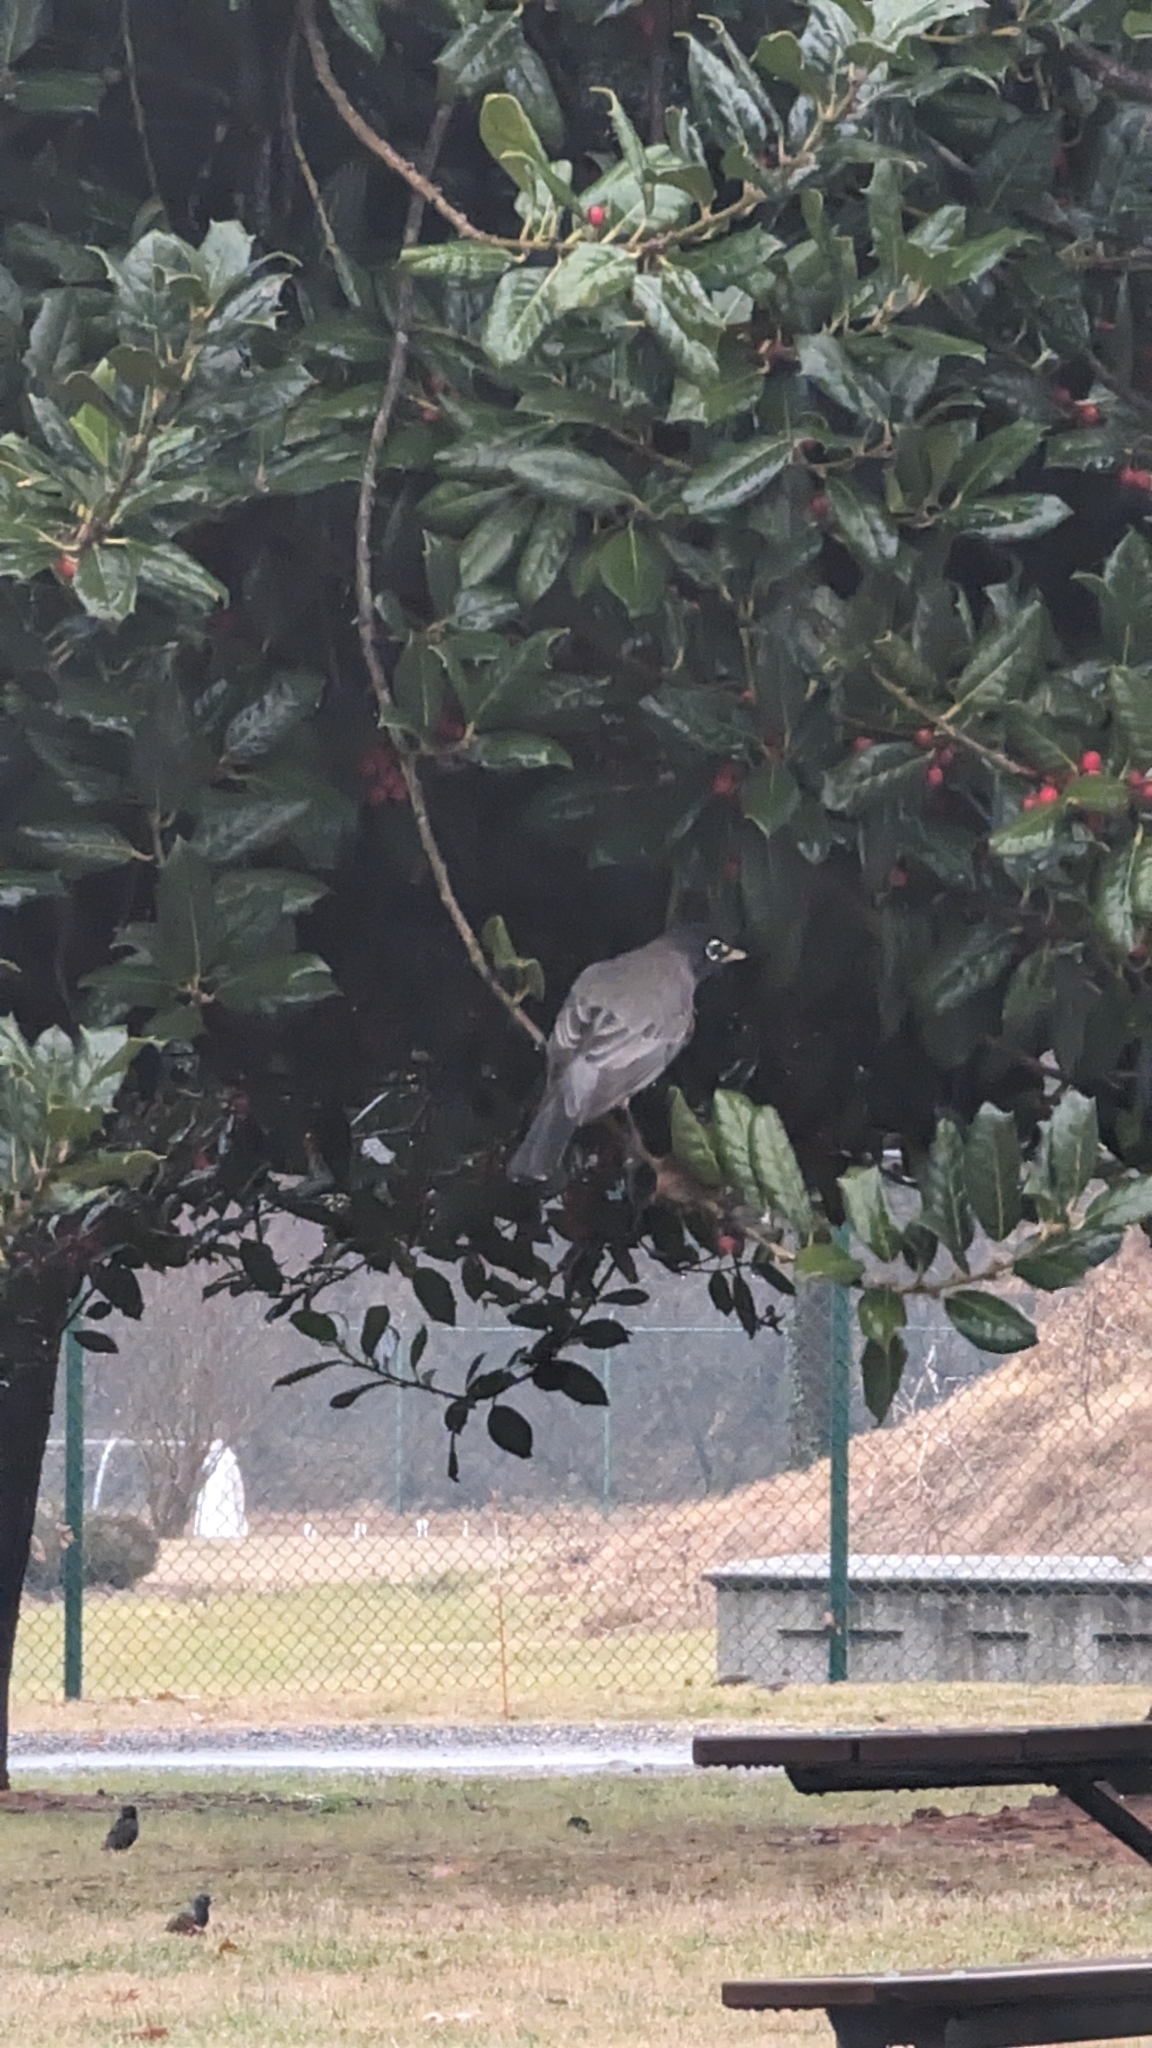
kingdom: Animalia
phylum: Chordata
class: Aves
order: Passeriformes
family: Turdidae
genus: Turdus
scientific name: Turdus migratorius
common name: American robin
